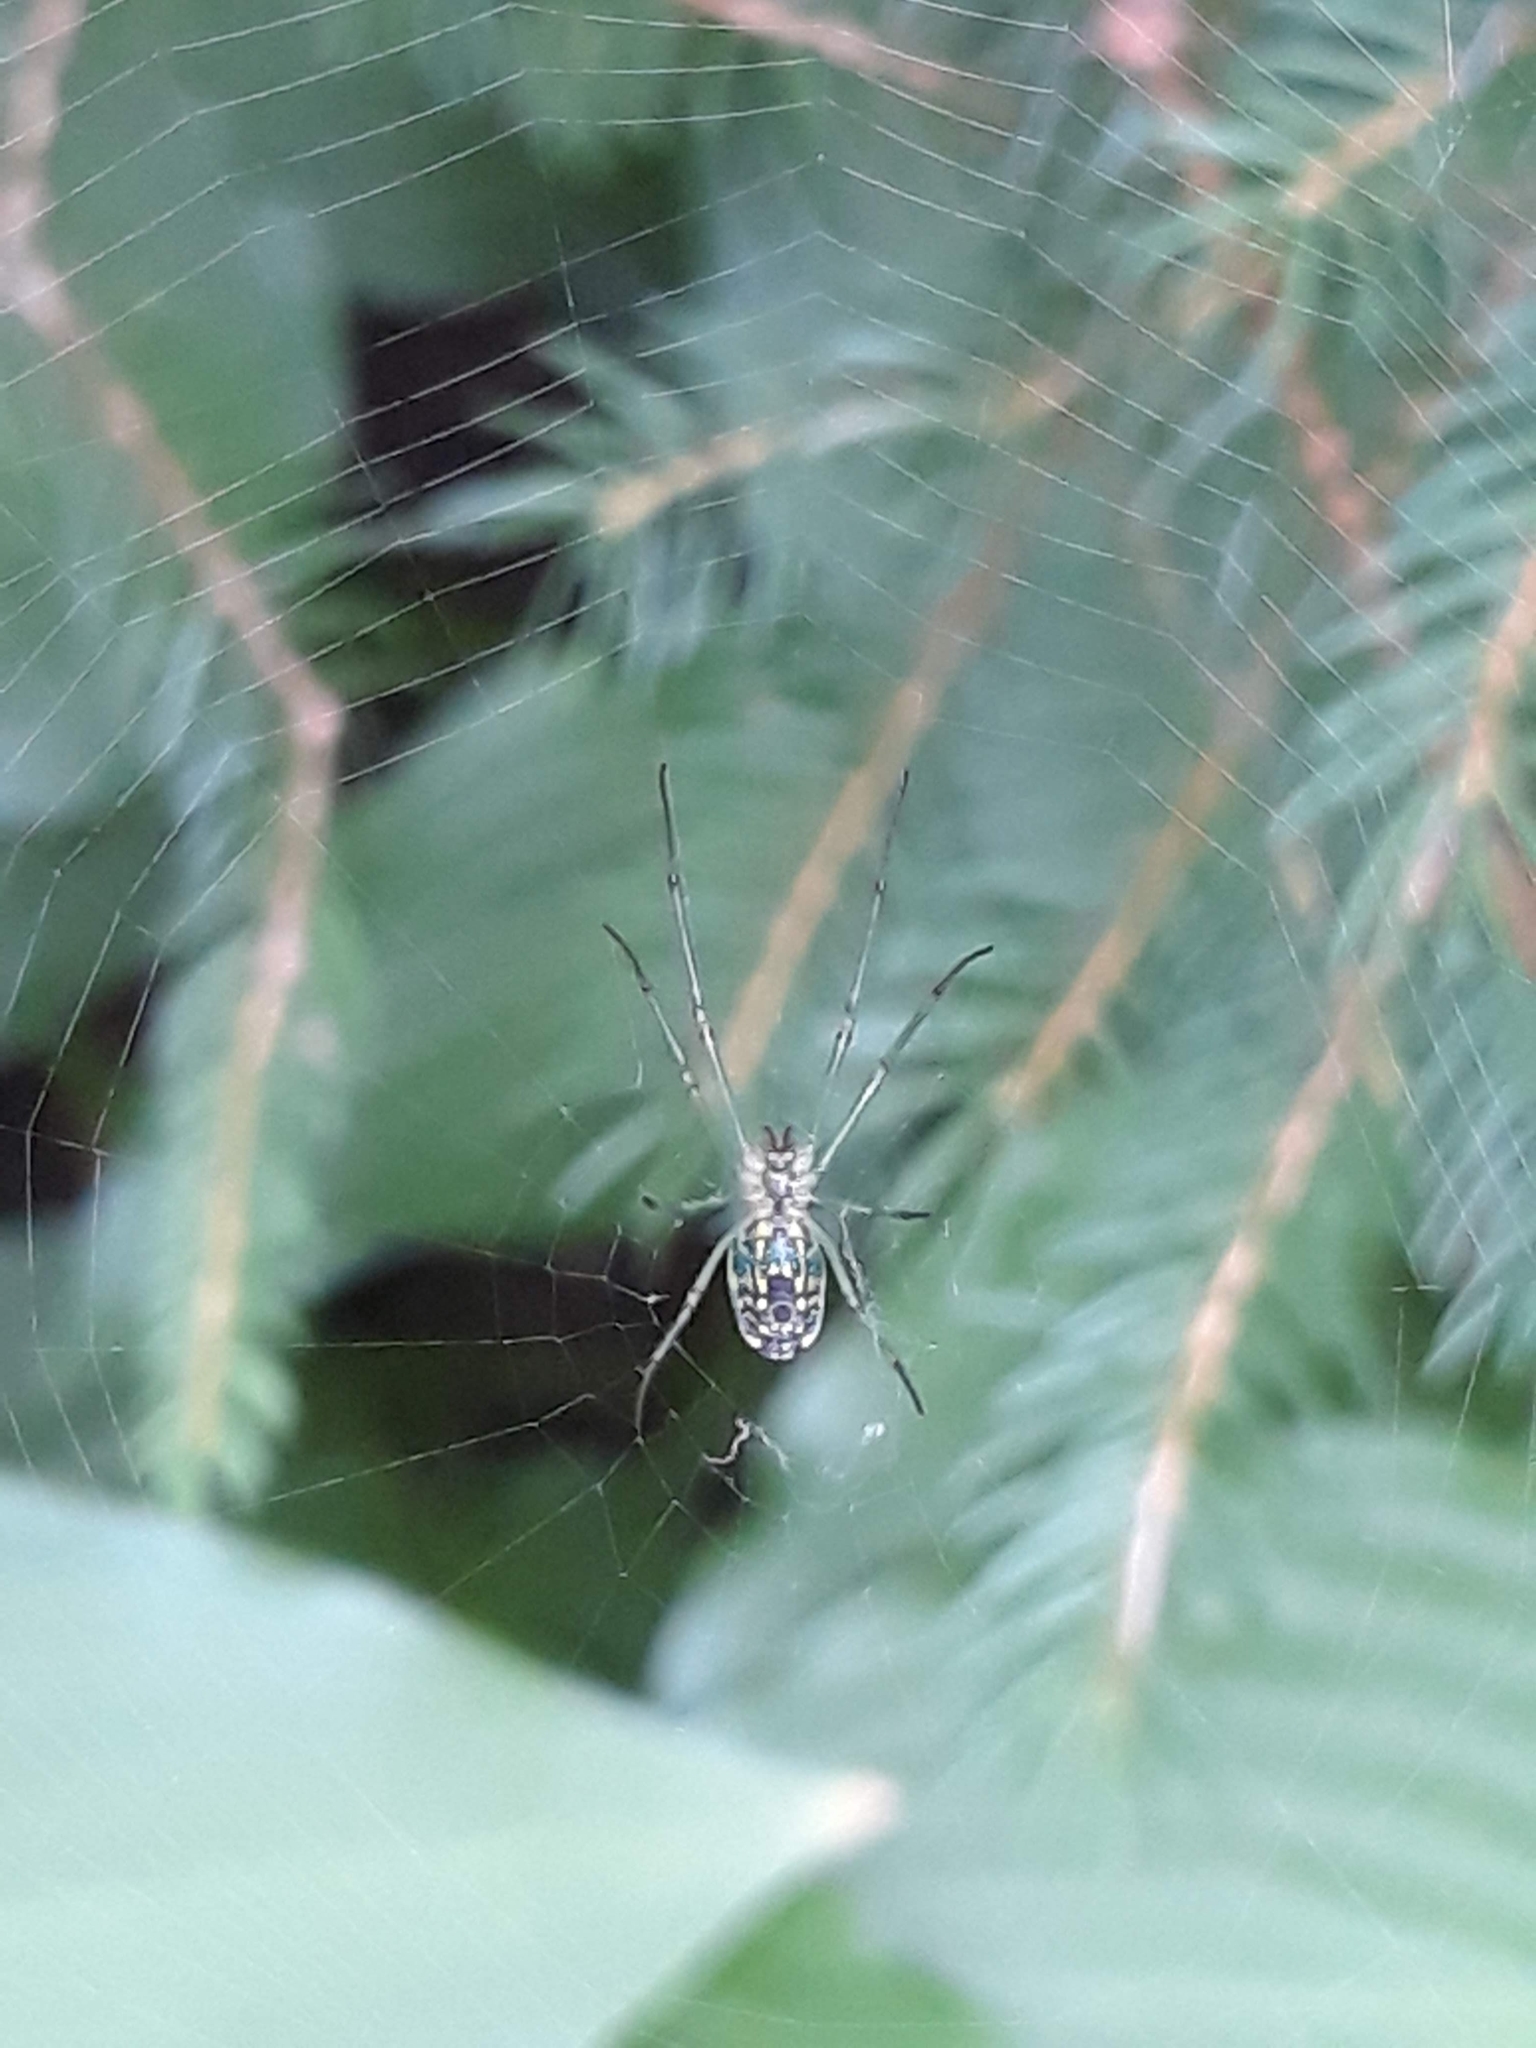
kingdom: Animalia
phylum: Arthropoda
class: Arachnida
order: Araneae
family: Tetragnathidae
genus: Leucauge
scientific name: Leucauge venusta
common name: Longjawed orb weavers
